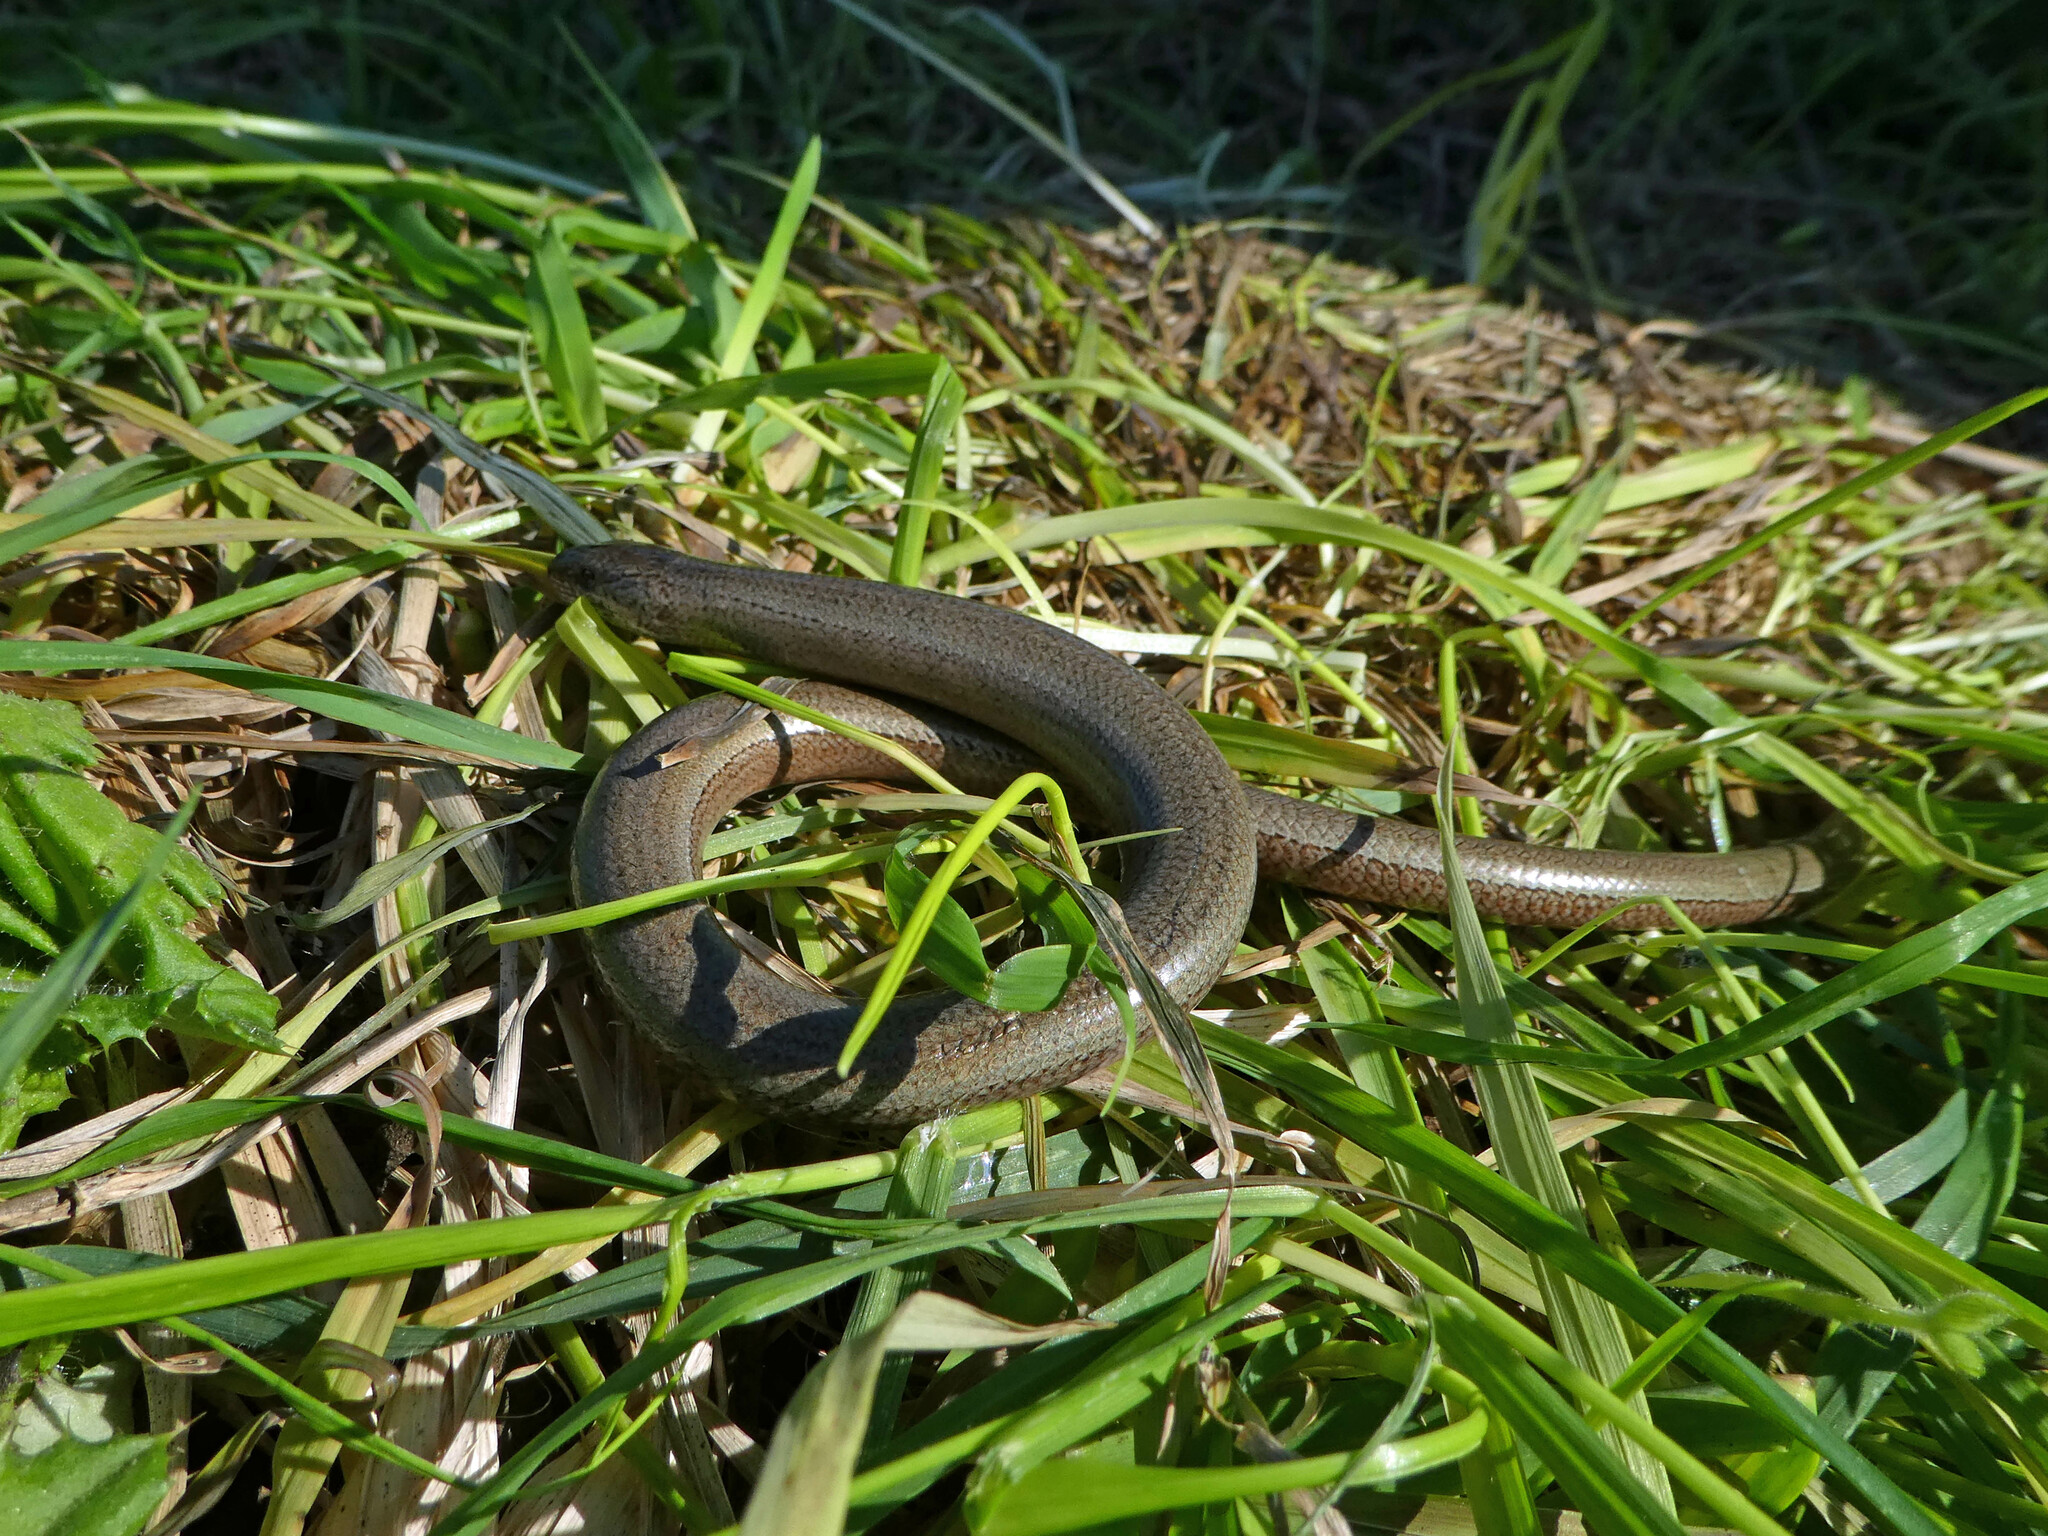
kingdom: Animalia
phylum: Chordata
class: Squamata
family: Anguidae
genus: Anguis
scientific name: Anguis fragilis
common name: Slow worm
